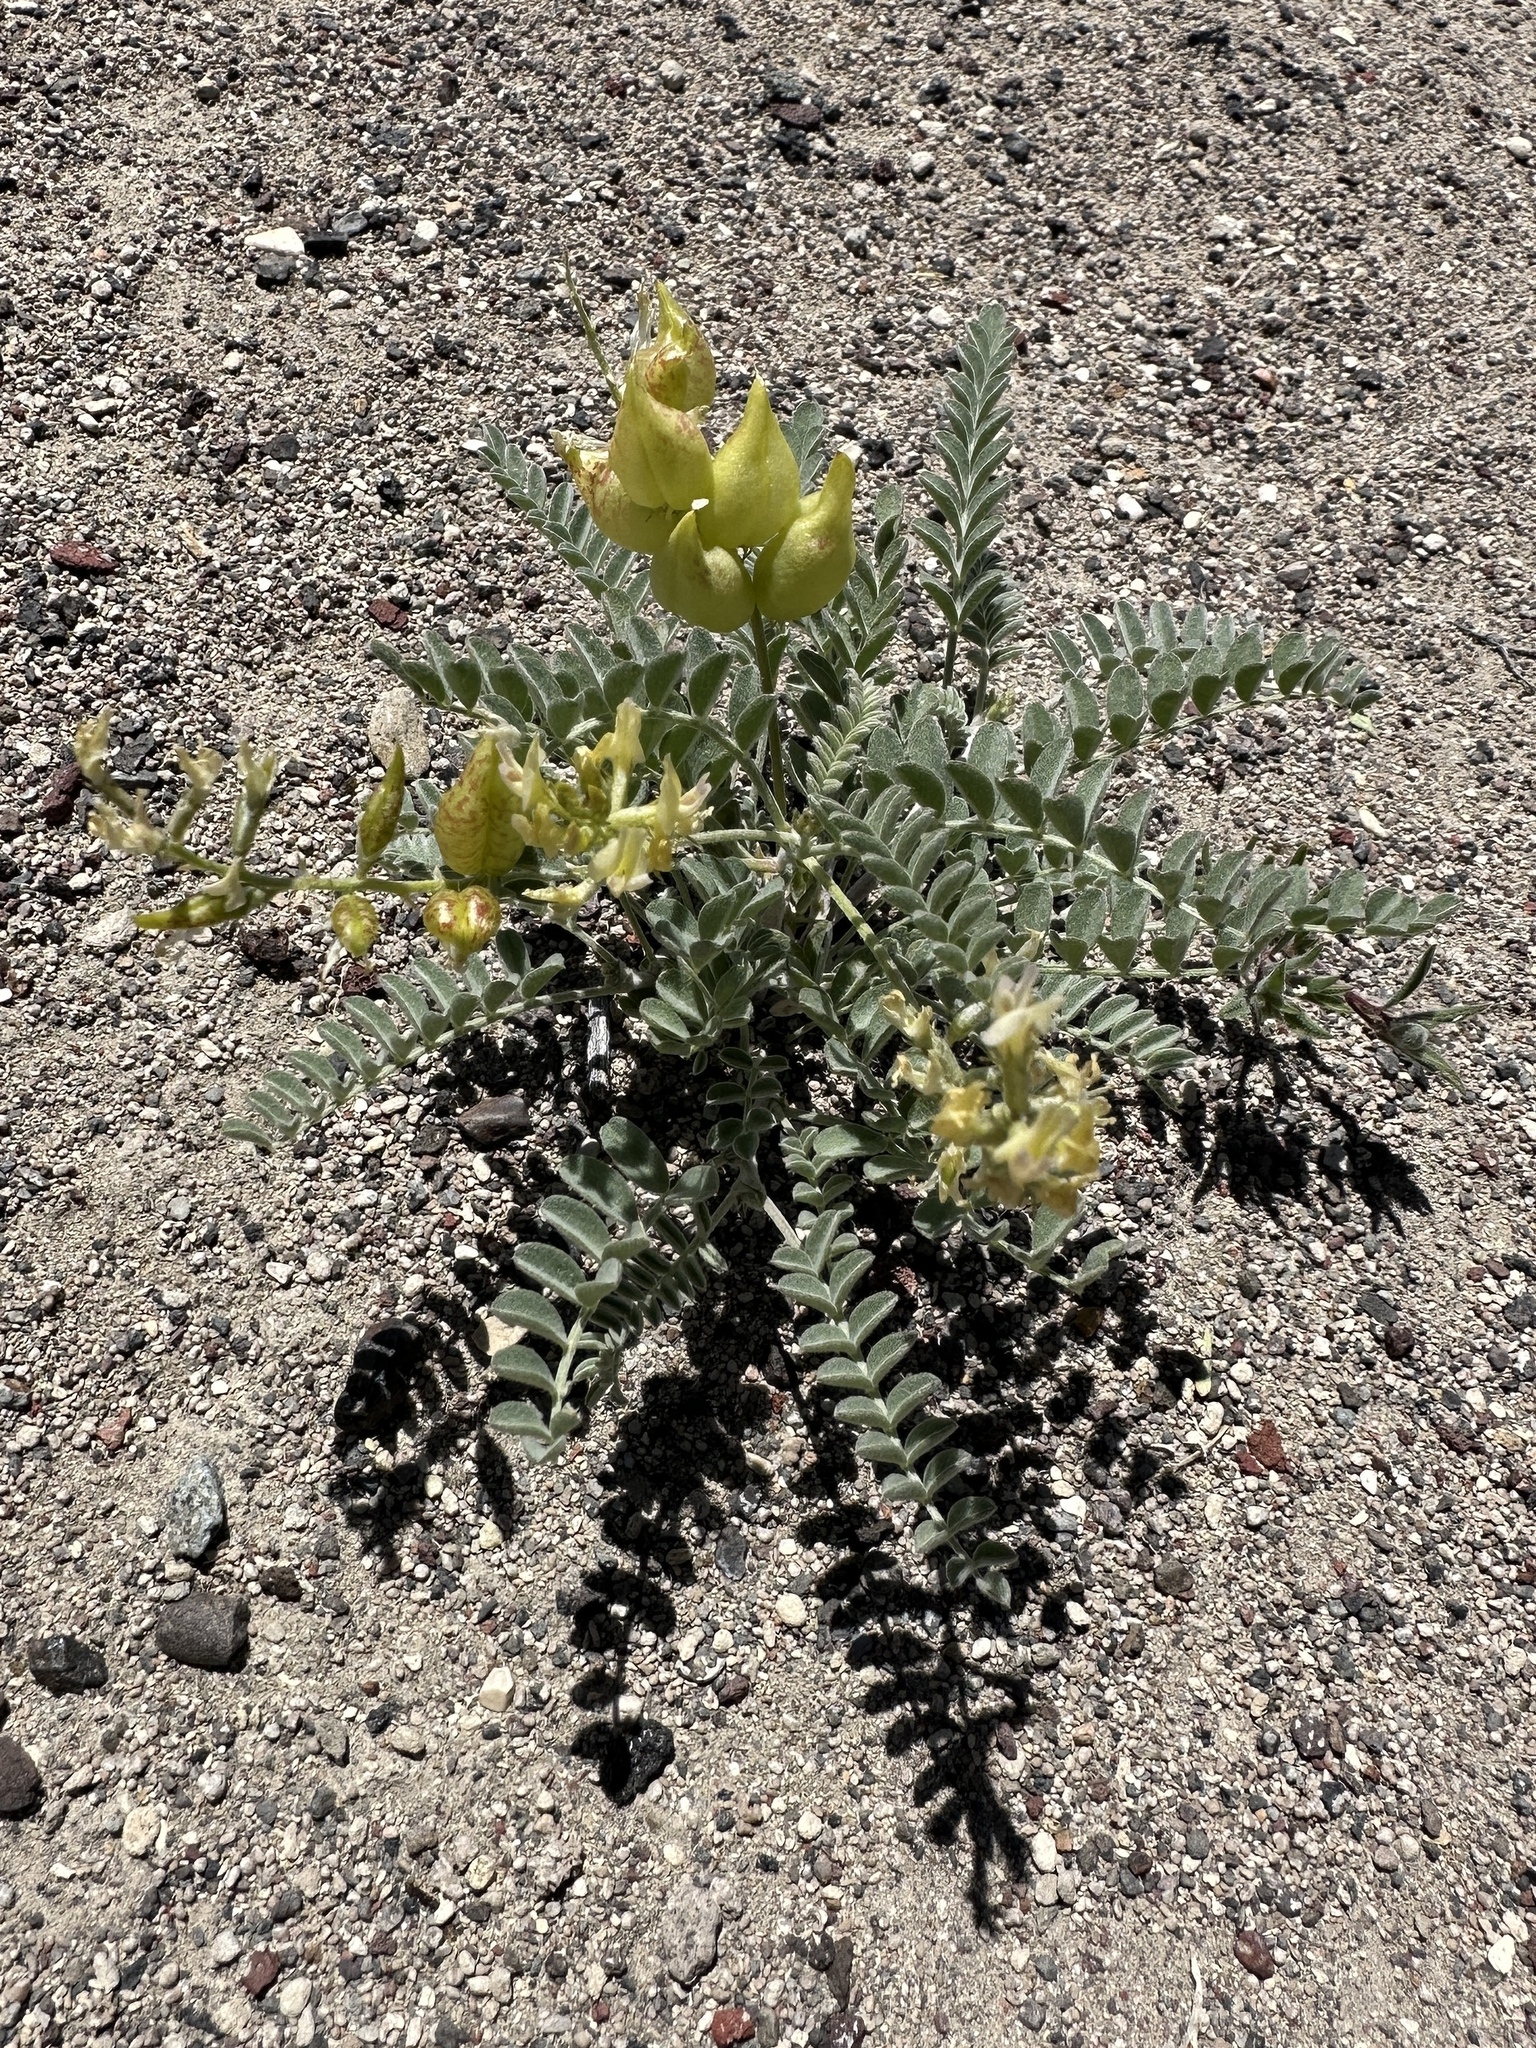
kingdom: Plantae
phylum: Tracheophyta
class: Magnoliopsida
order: Fabales
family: Fabaceae
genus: Astragalus
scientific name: Astragalus lentiginosus
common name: Freckled milkvetch
